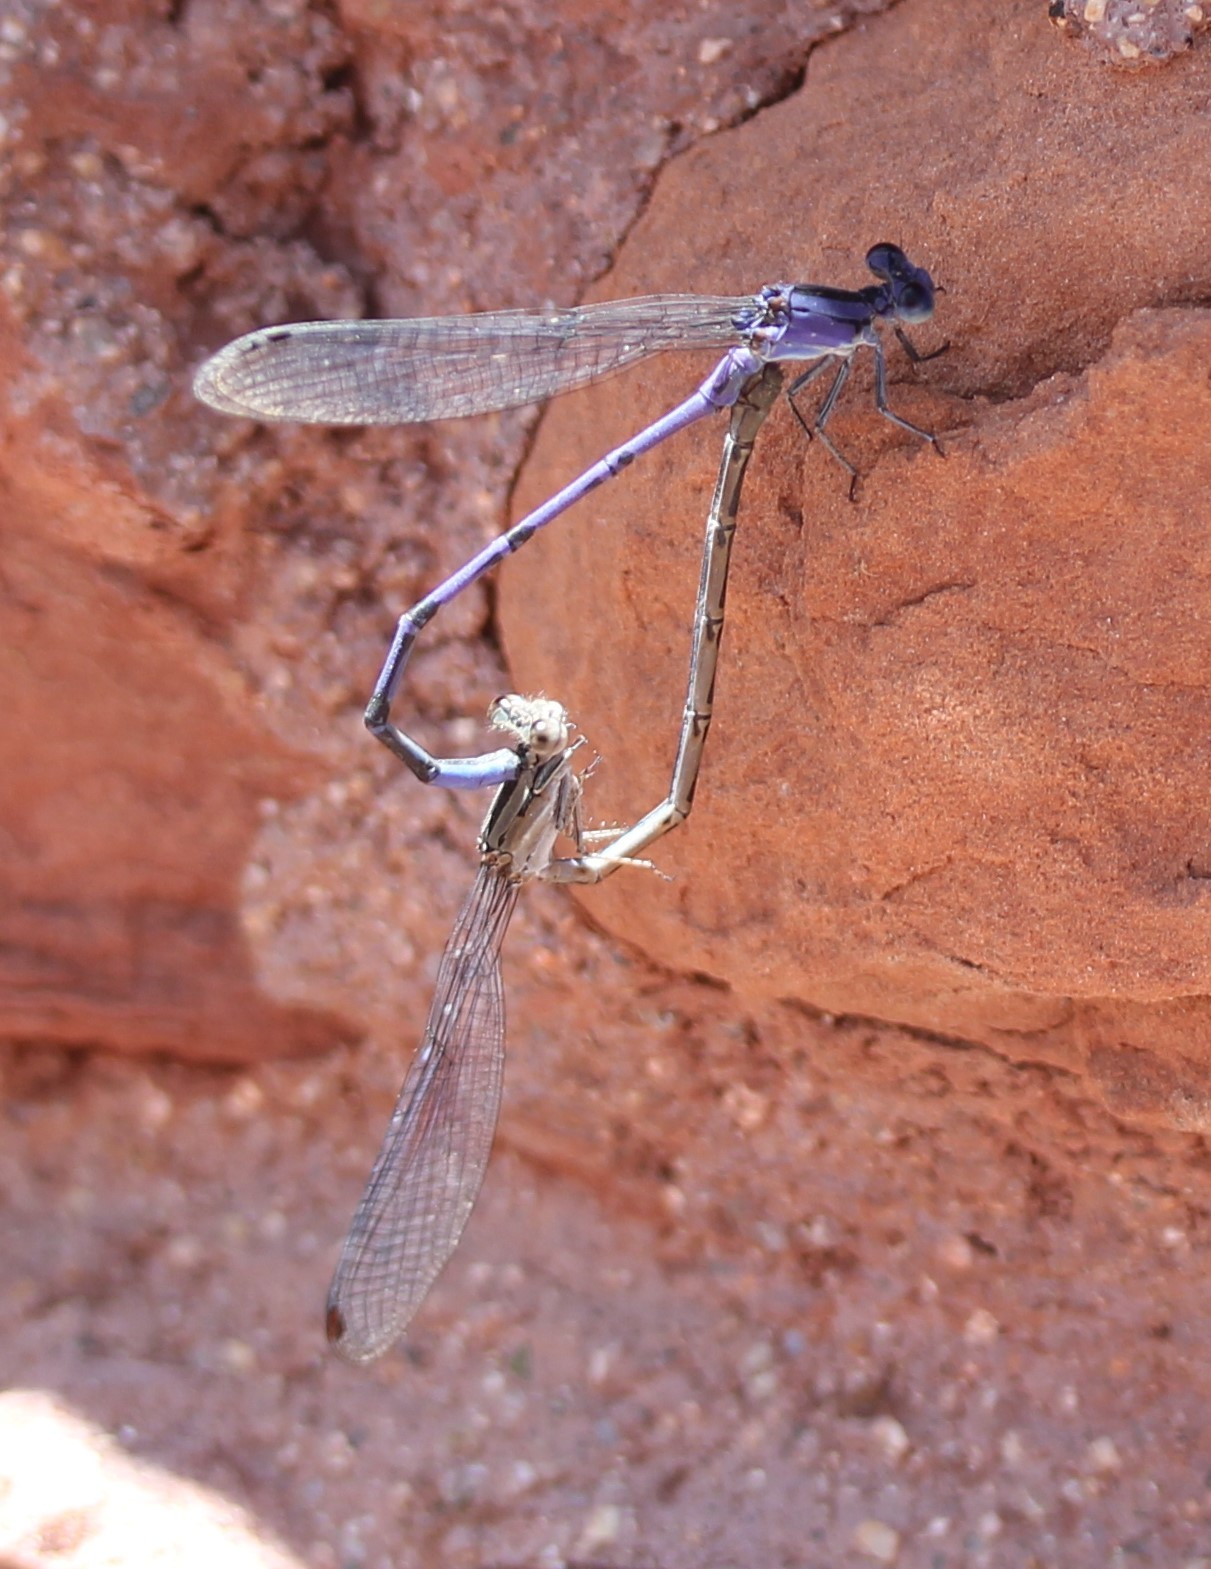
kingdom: Animalia
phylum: Arthropoda
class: Insecta
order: Odonata
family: Coenagrionidae
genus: Argia
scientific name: Argia funebris
